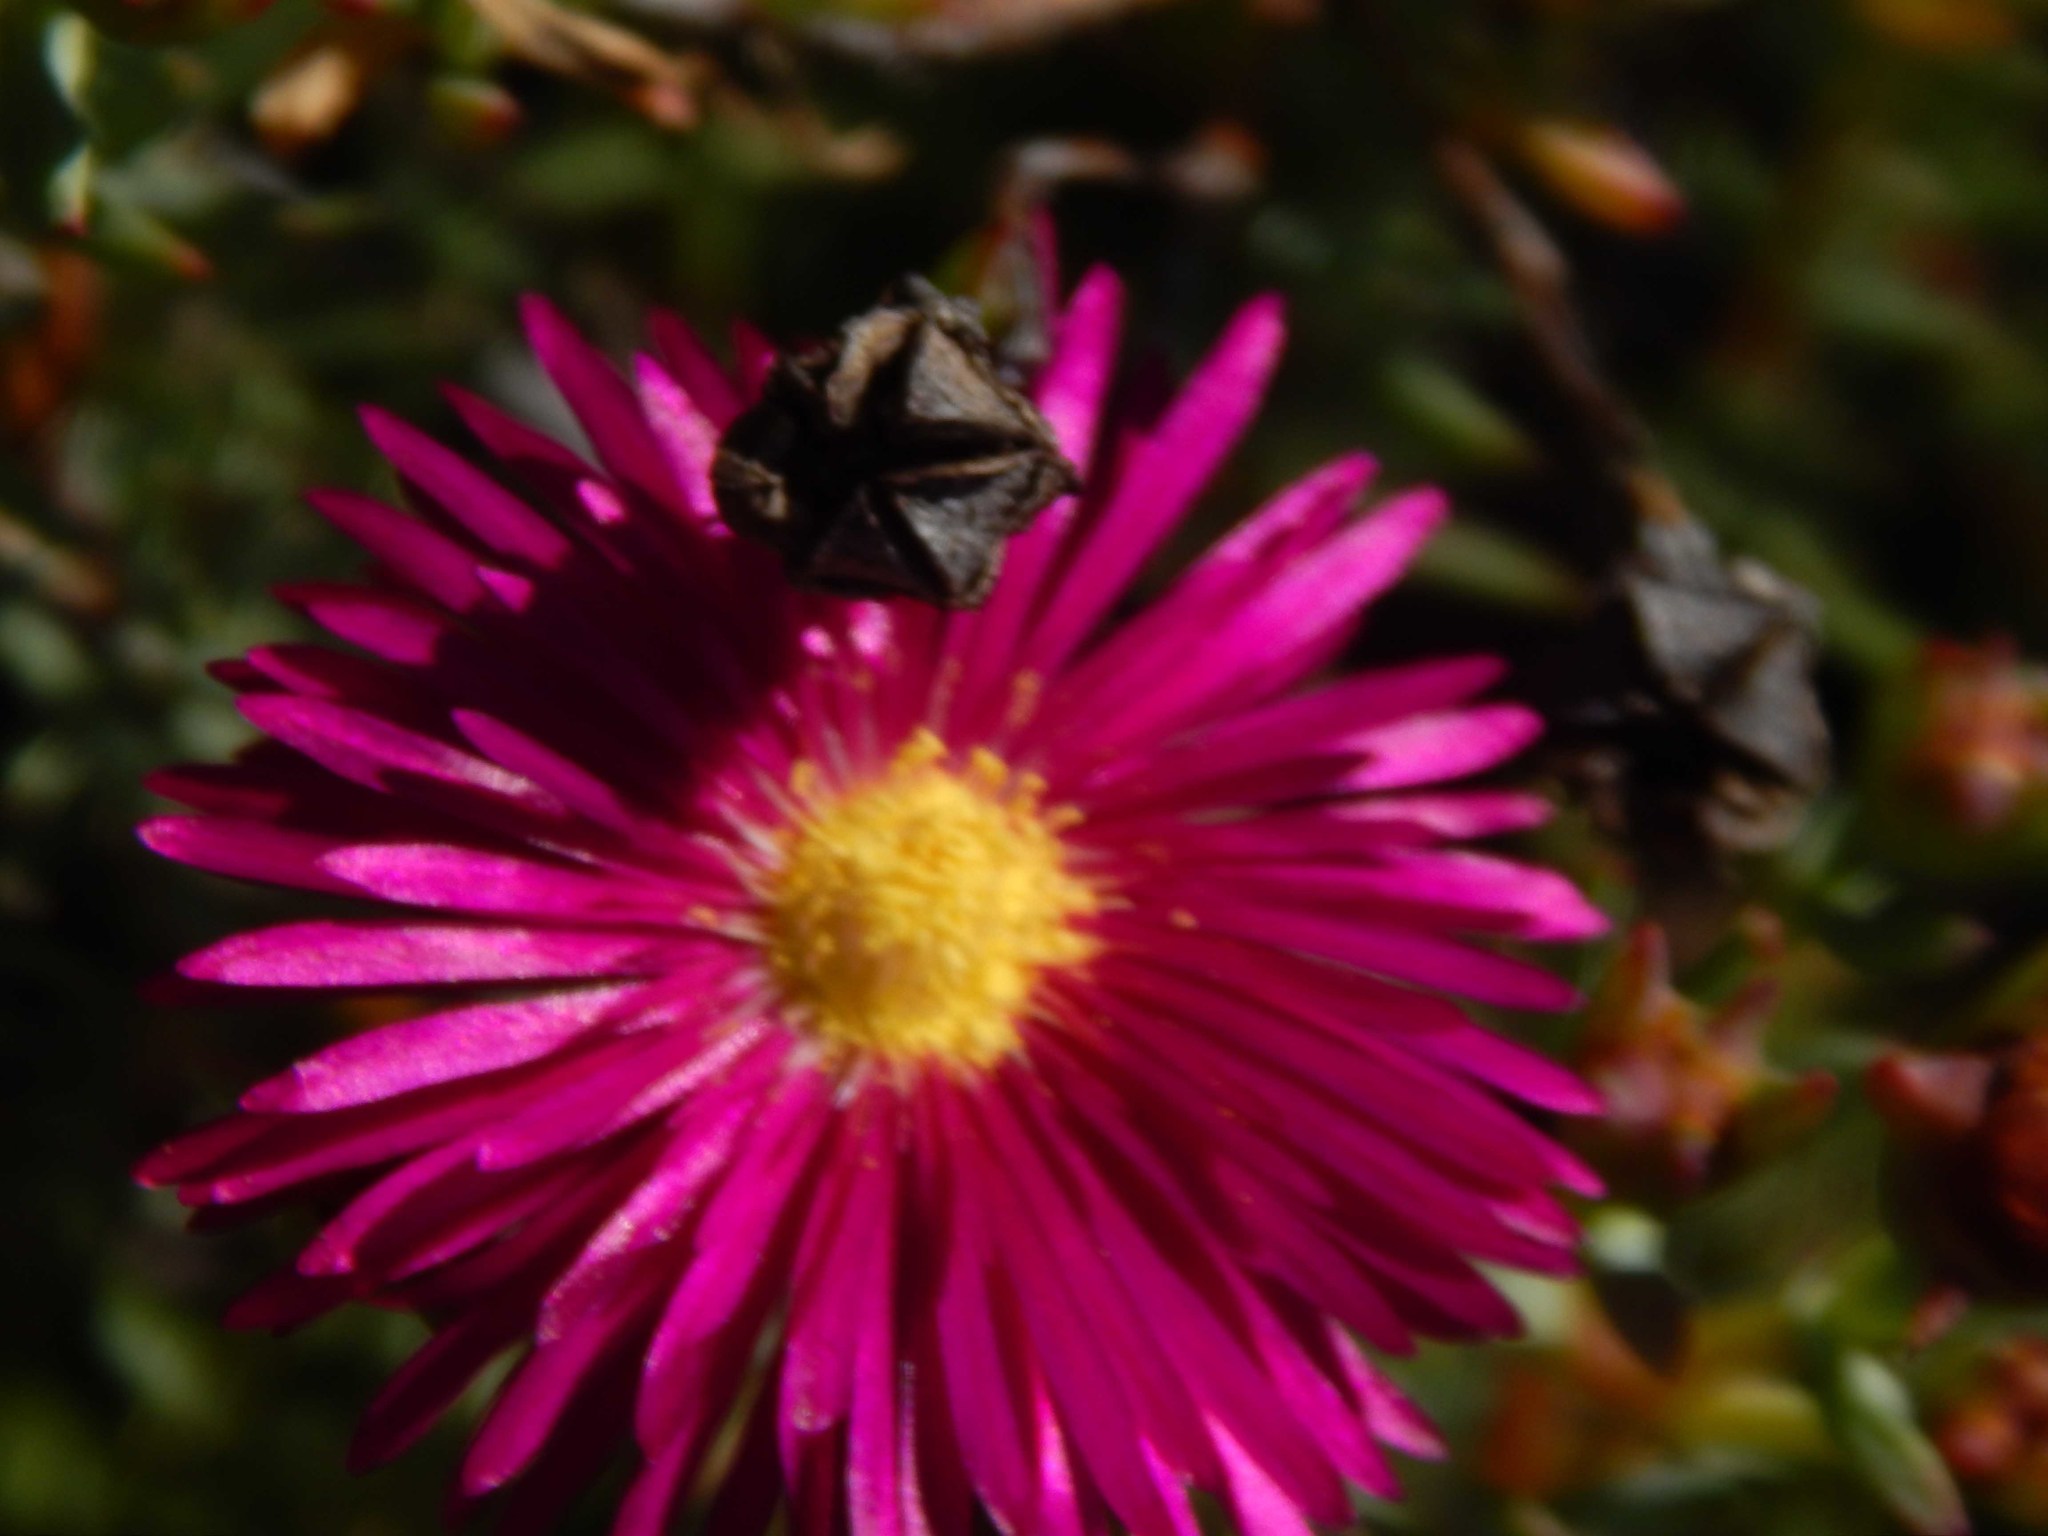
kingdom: Plantae
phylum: Tracheophyta
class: Magnoliopsida
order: Caryophyllales
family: Aizoaceae
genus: Lampranthus
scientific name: Lampranthus stenopetalus
